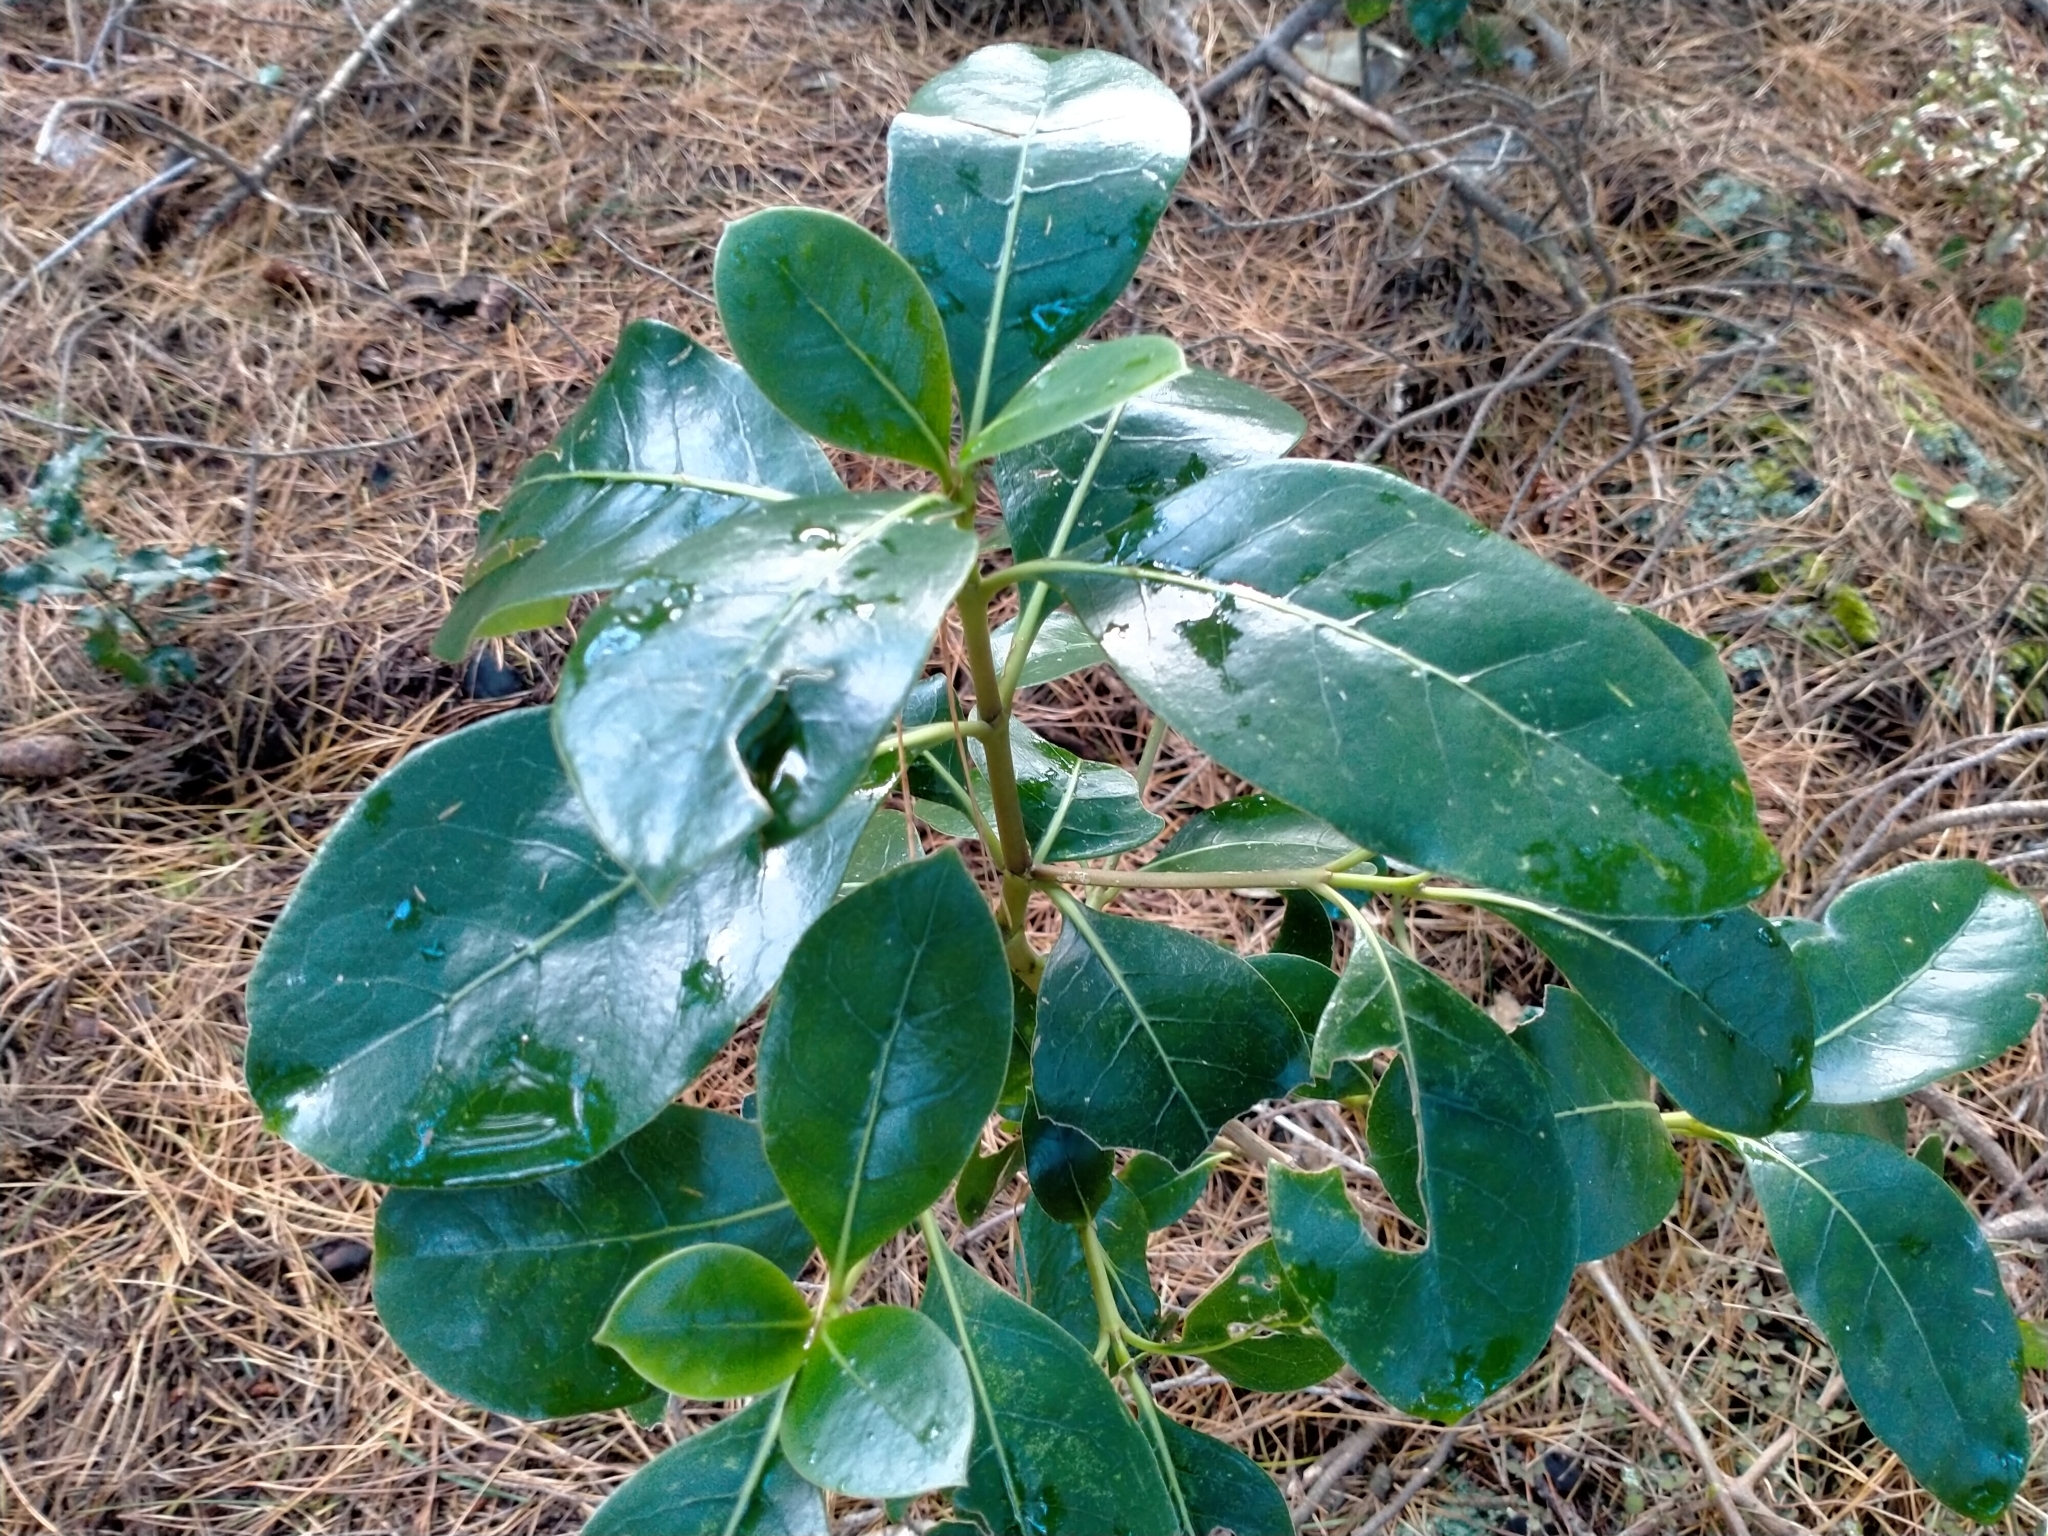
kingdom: Plantae
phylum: Tracheophyta
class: Magnoliopsida
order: Gentianales
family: Rubiaceae
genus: Coprosma
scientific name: Coprosma lucida
